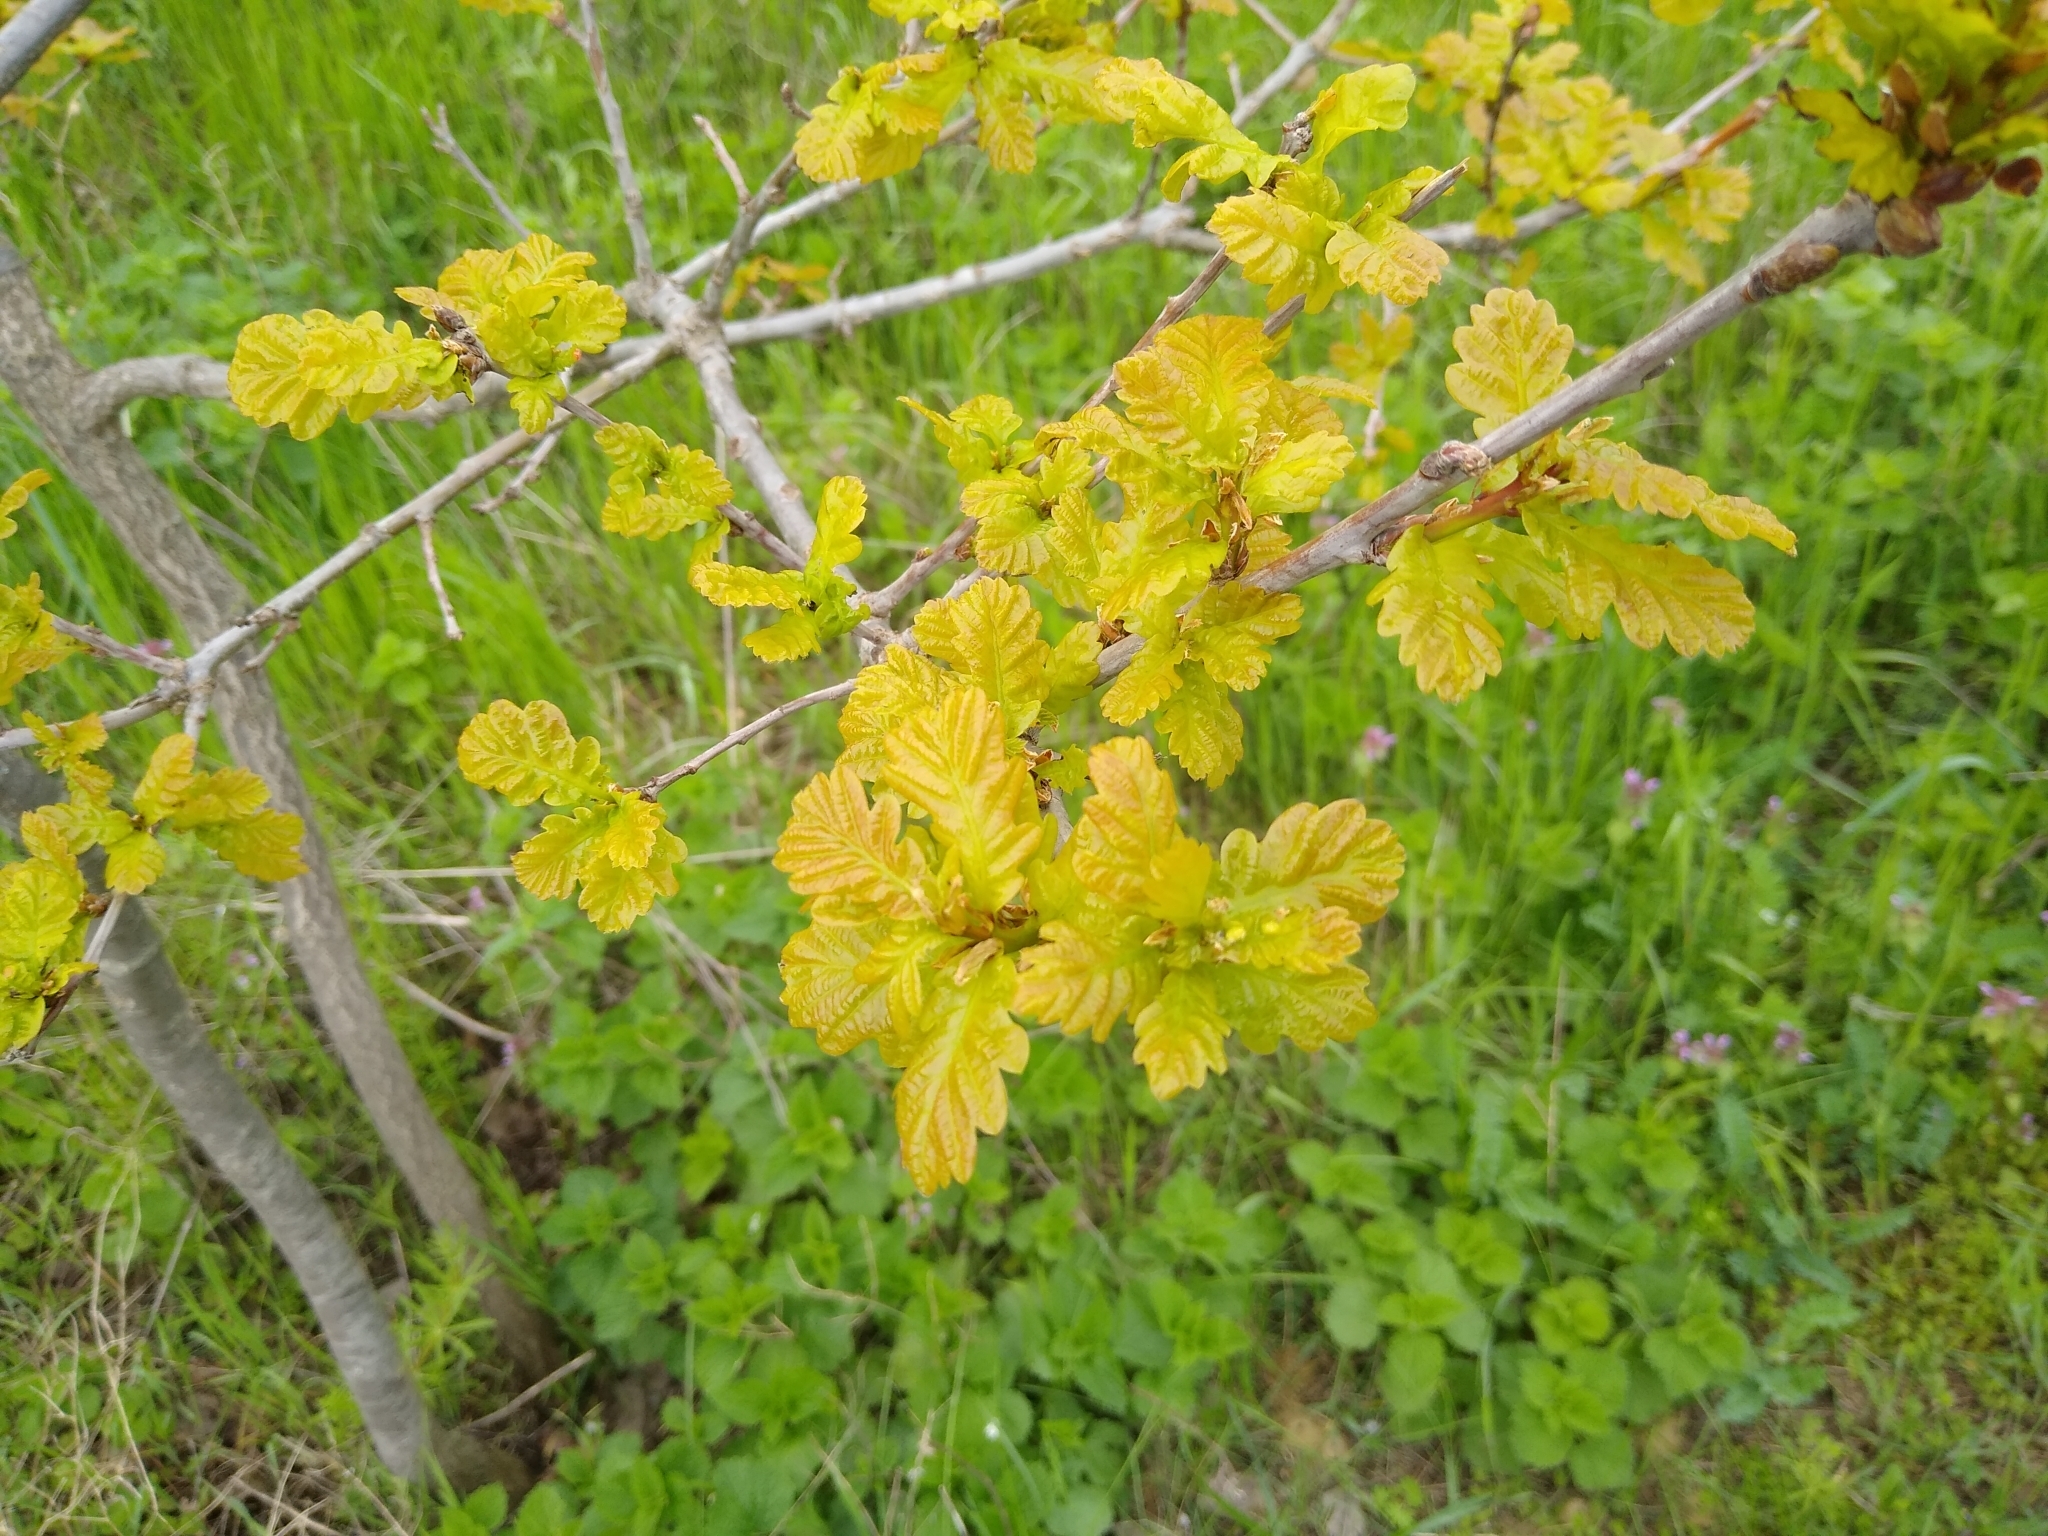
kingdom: Plantae
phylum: Tracheophyta
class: Magnoliopsida
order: Fagales
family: Fagaceae
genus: Quercus
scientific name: Quercus robur
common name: Pedunculate oak
